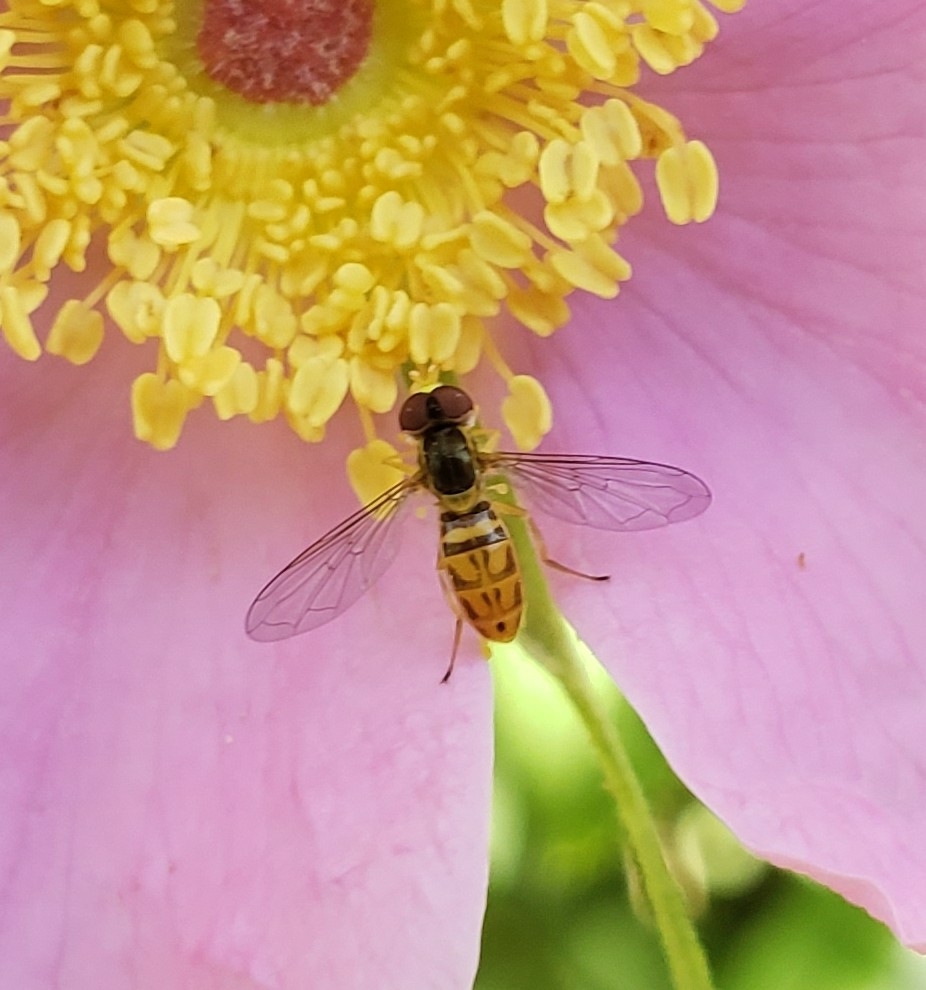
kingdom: Animalia
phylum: Arthropoda
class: Insecta
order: Diptera
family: Syrphidae
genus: Toxomerus
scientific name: Toxomerus marginatus
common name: Syrphid fly
